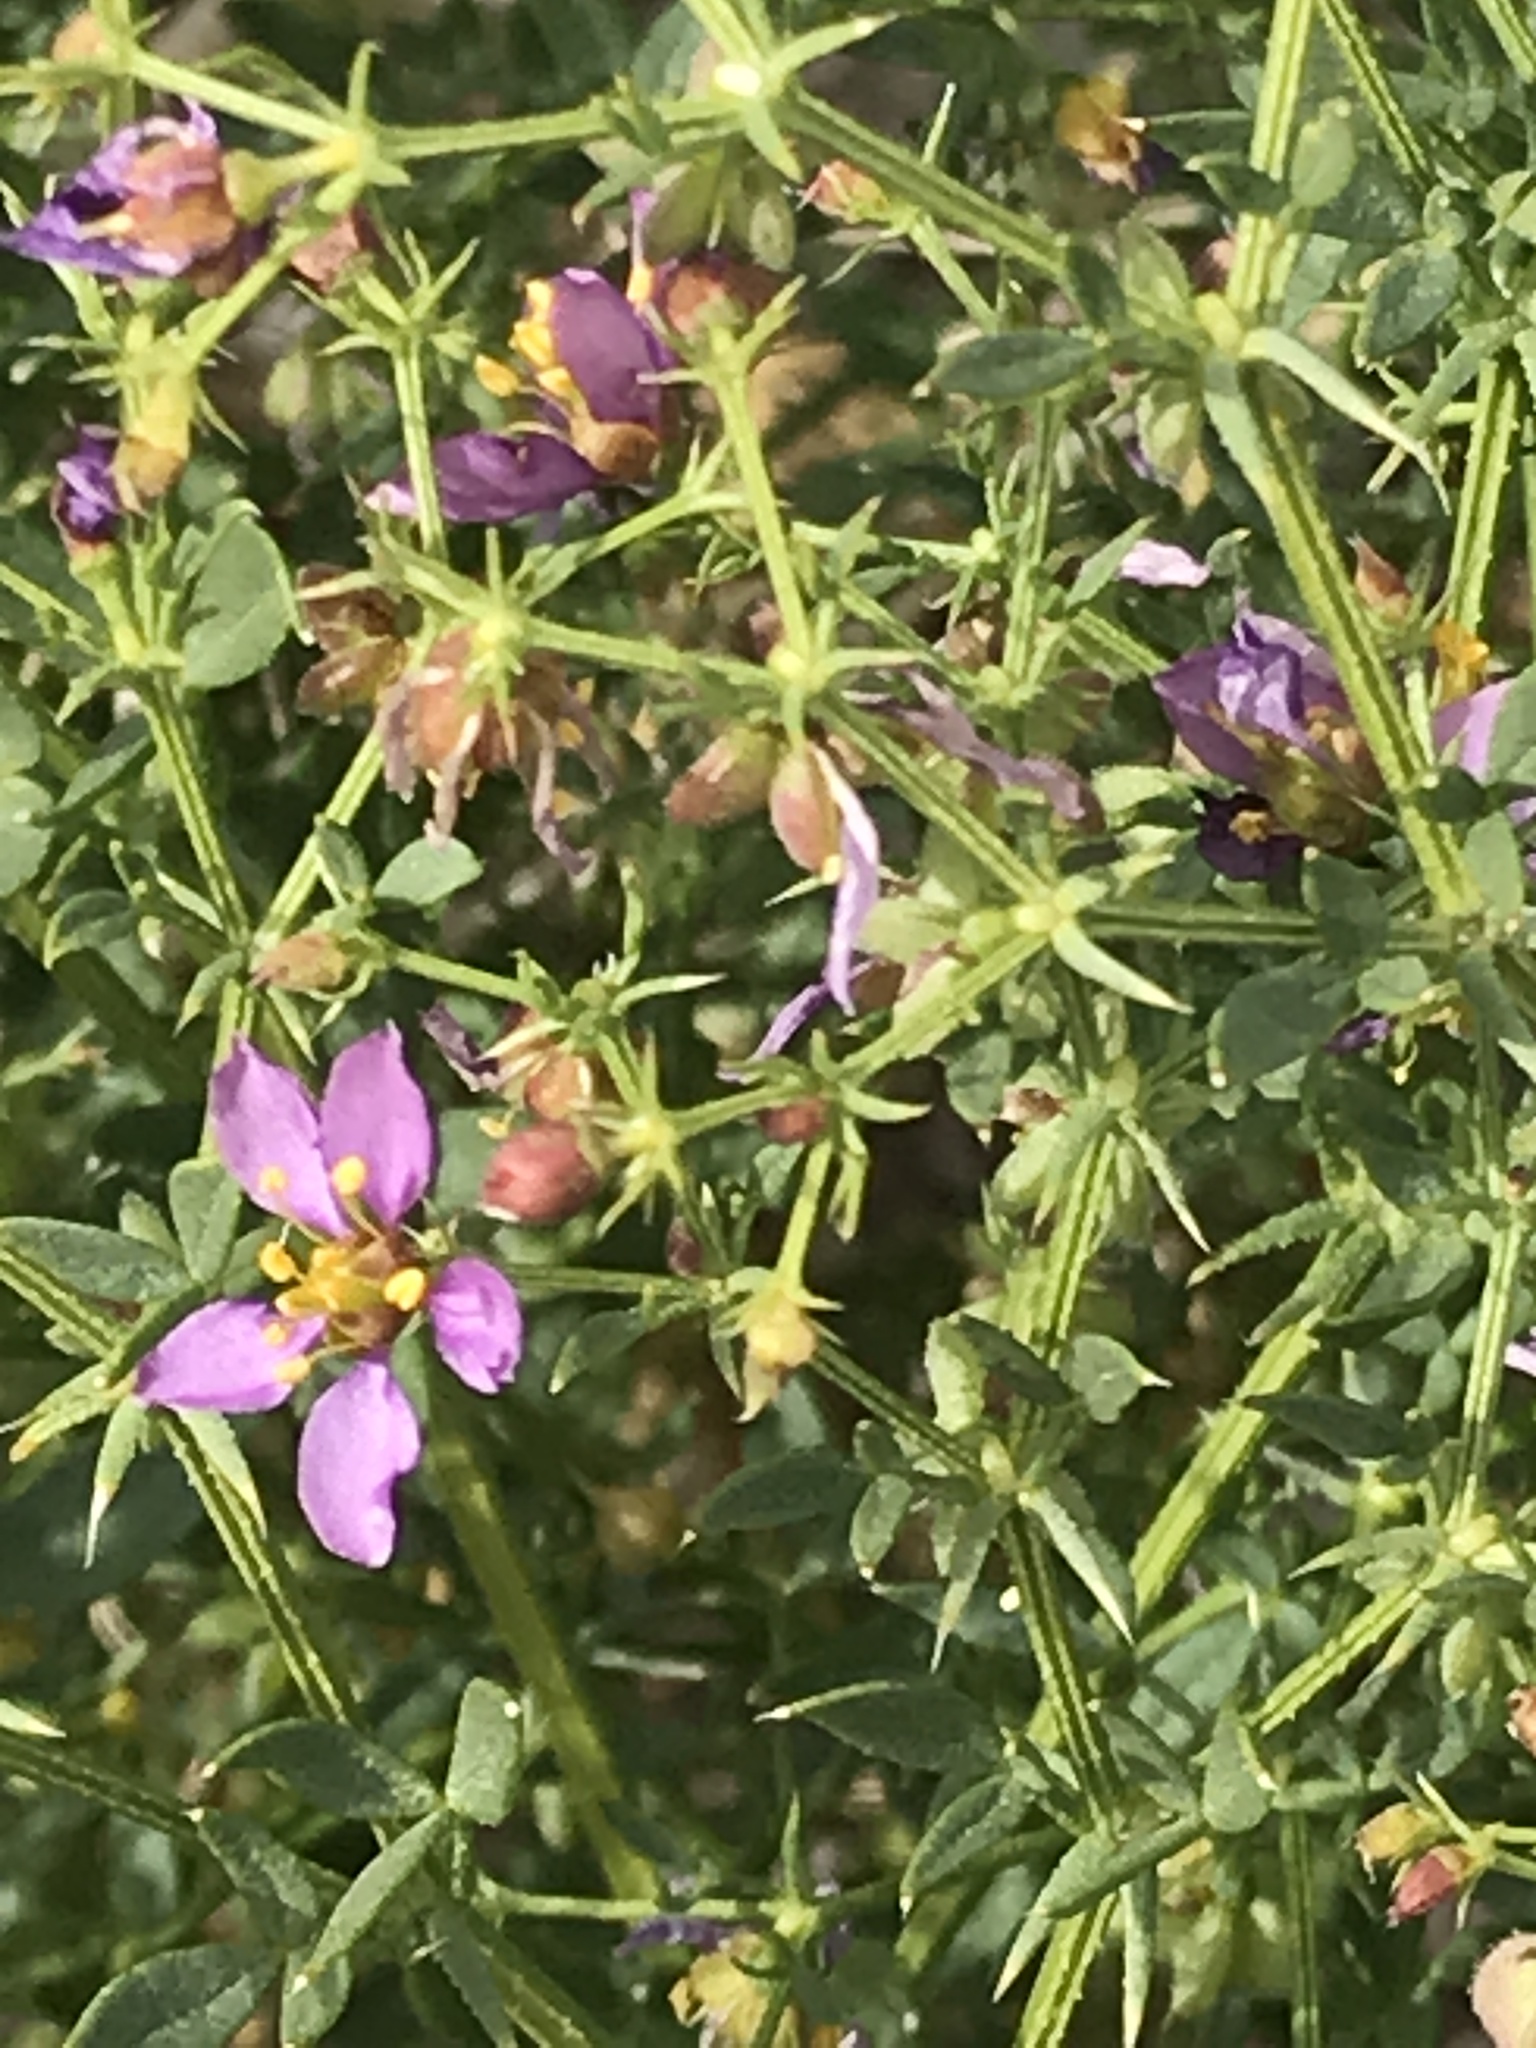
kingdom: Plantae
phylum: Tracheophyta
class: Magnoliopsida
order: Zygophyllales
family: Zygophyllaceae
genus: Fagonia
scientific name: Fagonia laevis
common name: California fagonbush
